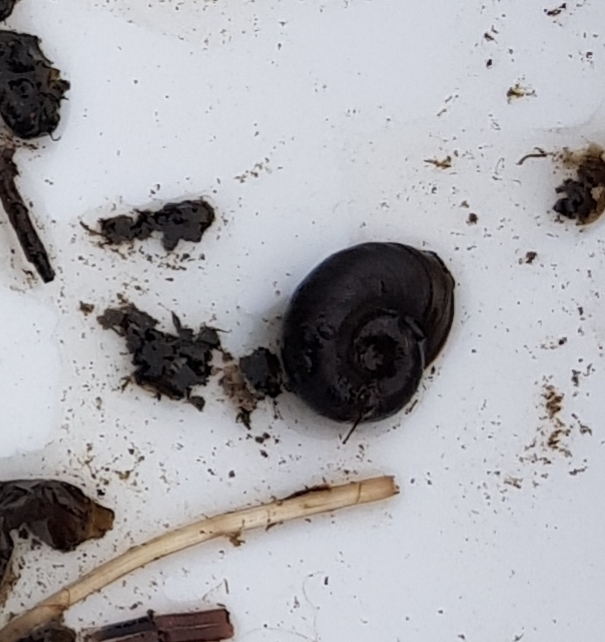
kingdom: Animalia
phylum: Mollusca
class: Gastropoda
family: Planorbidae
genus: Planorbarius
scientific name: Planorbarius corneus
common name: Great ramshorn
